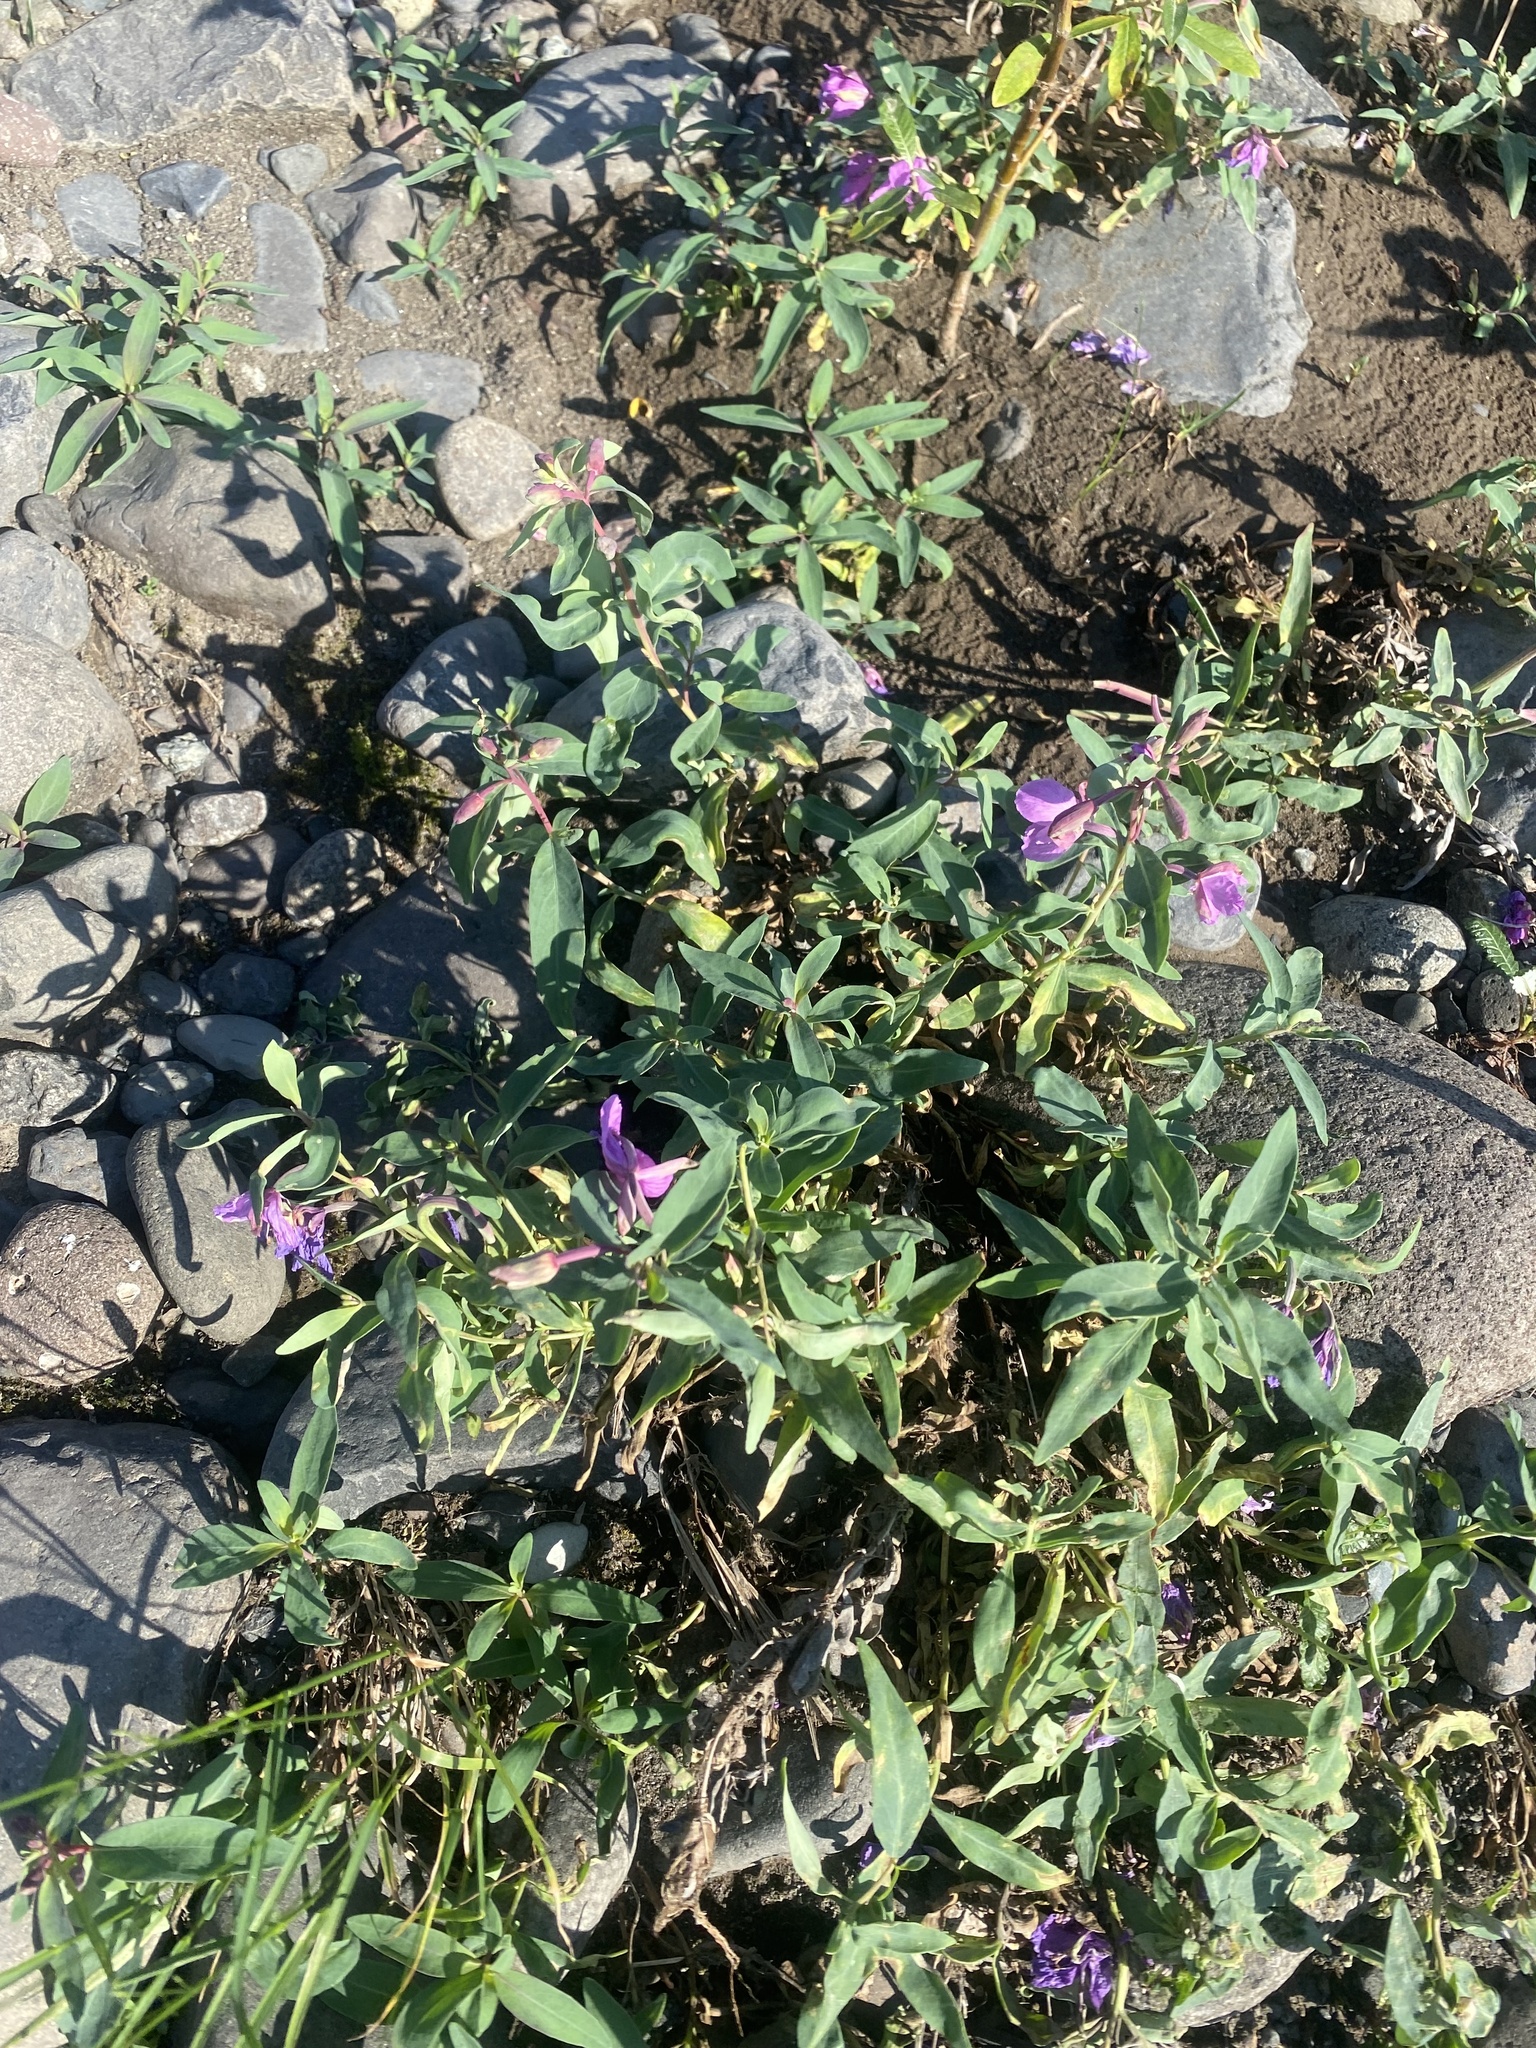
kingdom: Plantae
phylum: Tracheophyta
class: Magnoliopsida
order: Myrtales
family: Onagraceae
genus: Chamaenerion
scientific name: Chamaenerion latifolium
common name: Dwarf fireweed
